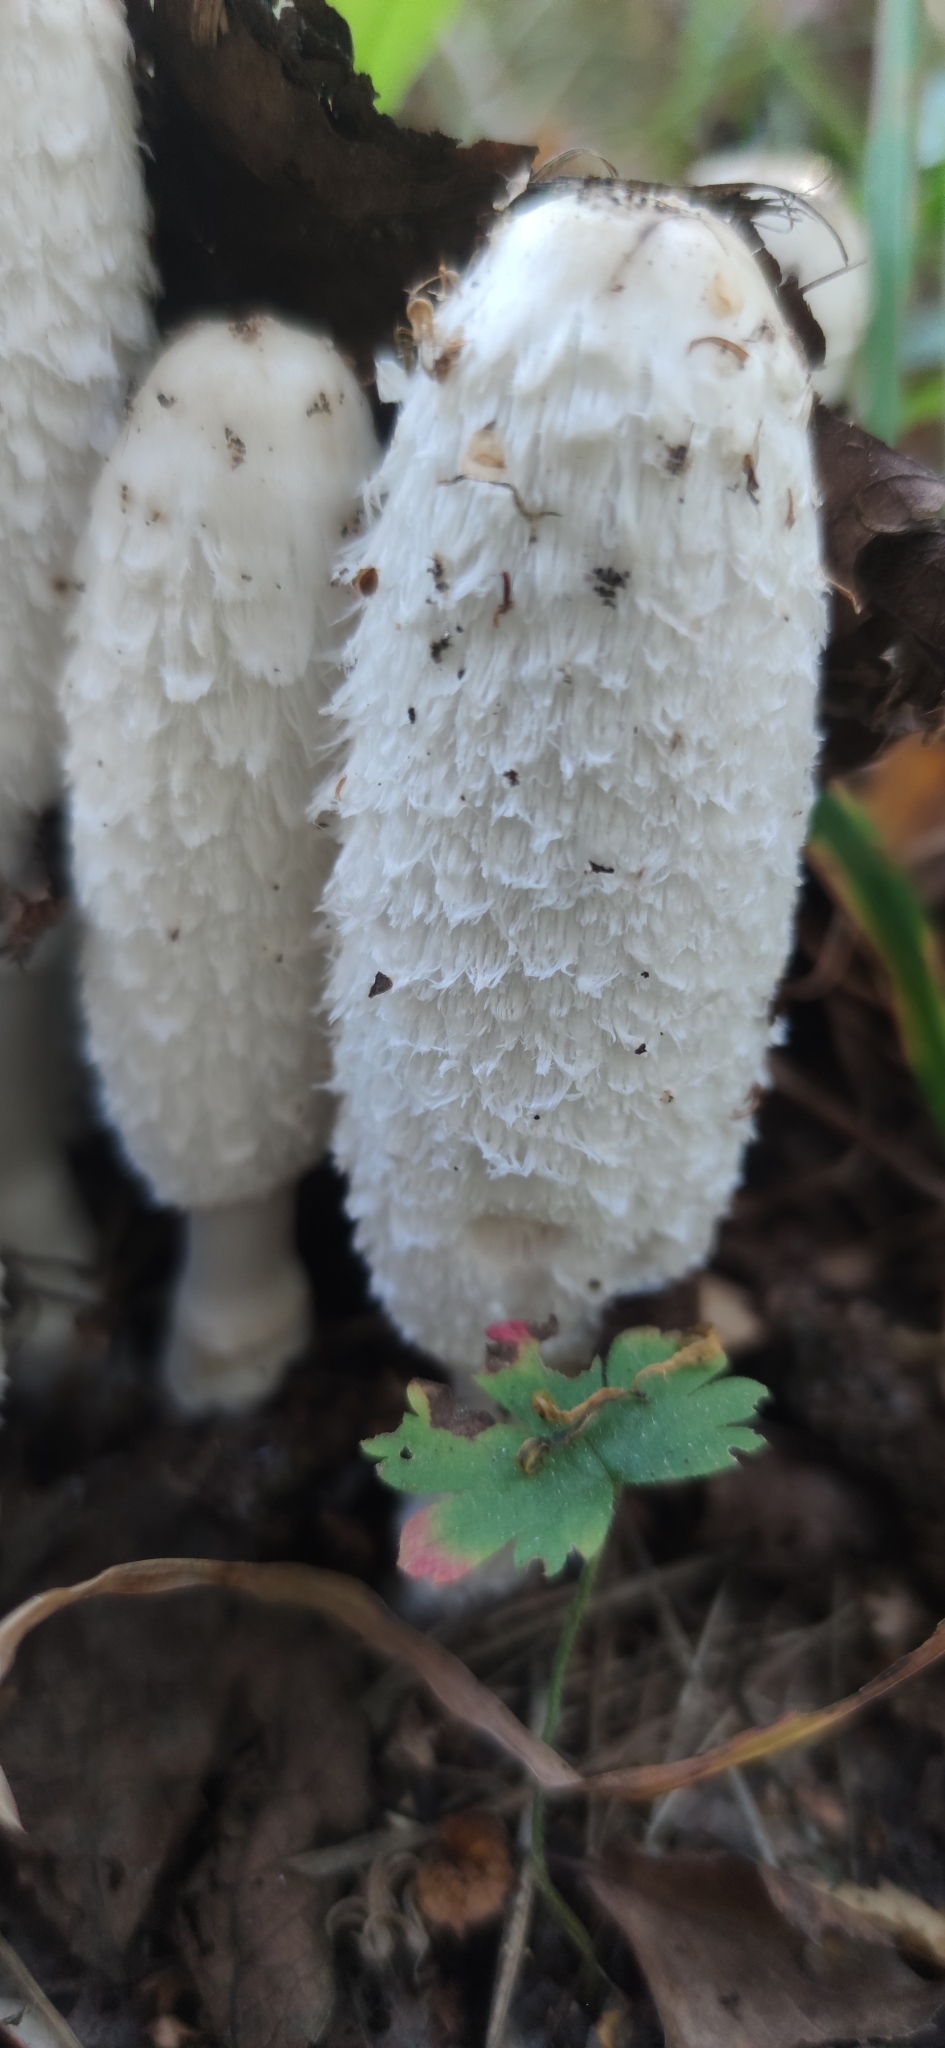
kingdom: Fungi
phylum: Basidiomycota
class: Agaricomycetes
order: Agaricales
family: Agaricaceae
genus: Coprinus
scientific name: Coprinus comatus
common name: Lawyer's wig
